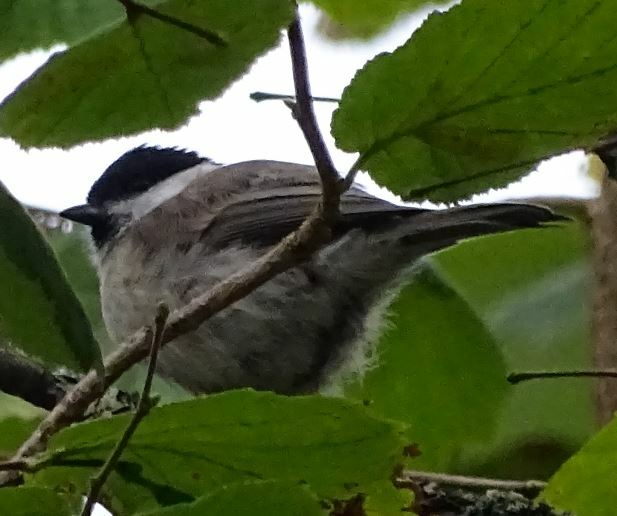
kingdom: Animalia
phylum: Chordata
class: Aves
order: Passeriformes
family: Paridae
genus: Poecile
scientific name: Poecile palustris
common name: Marsh tit
